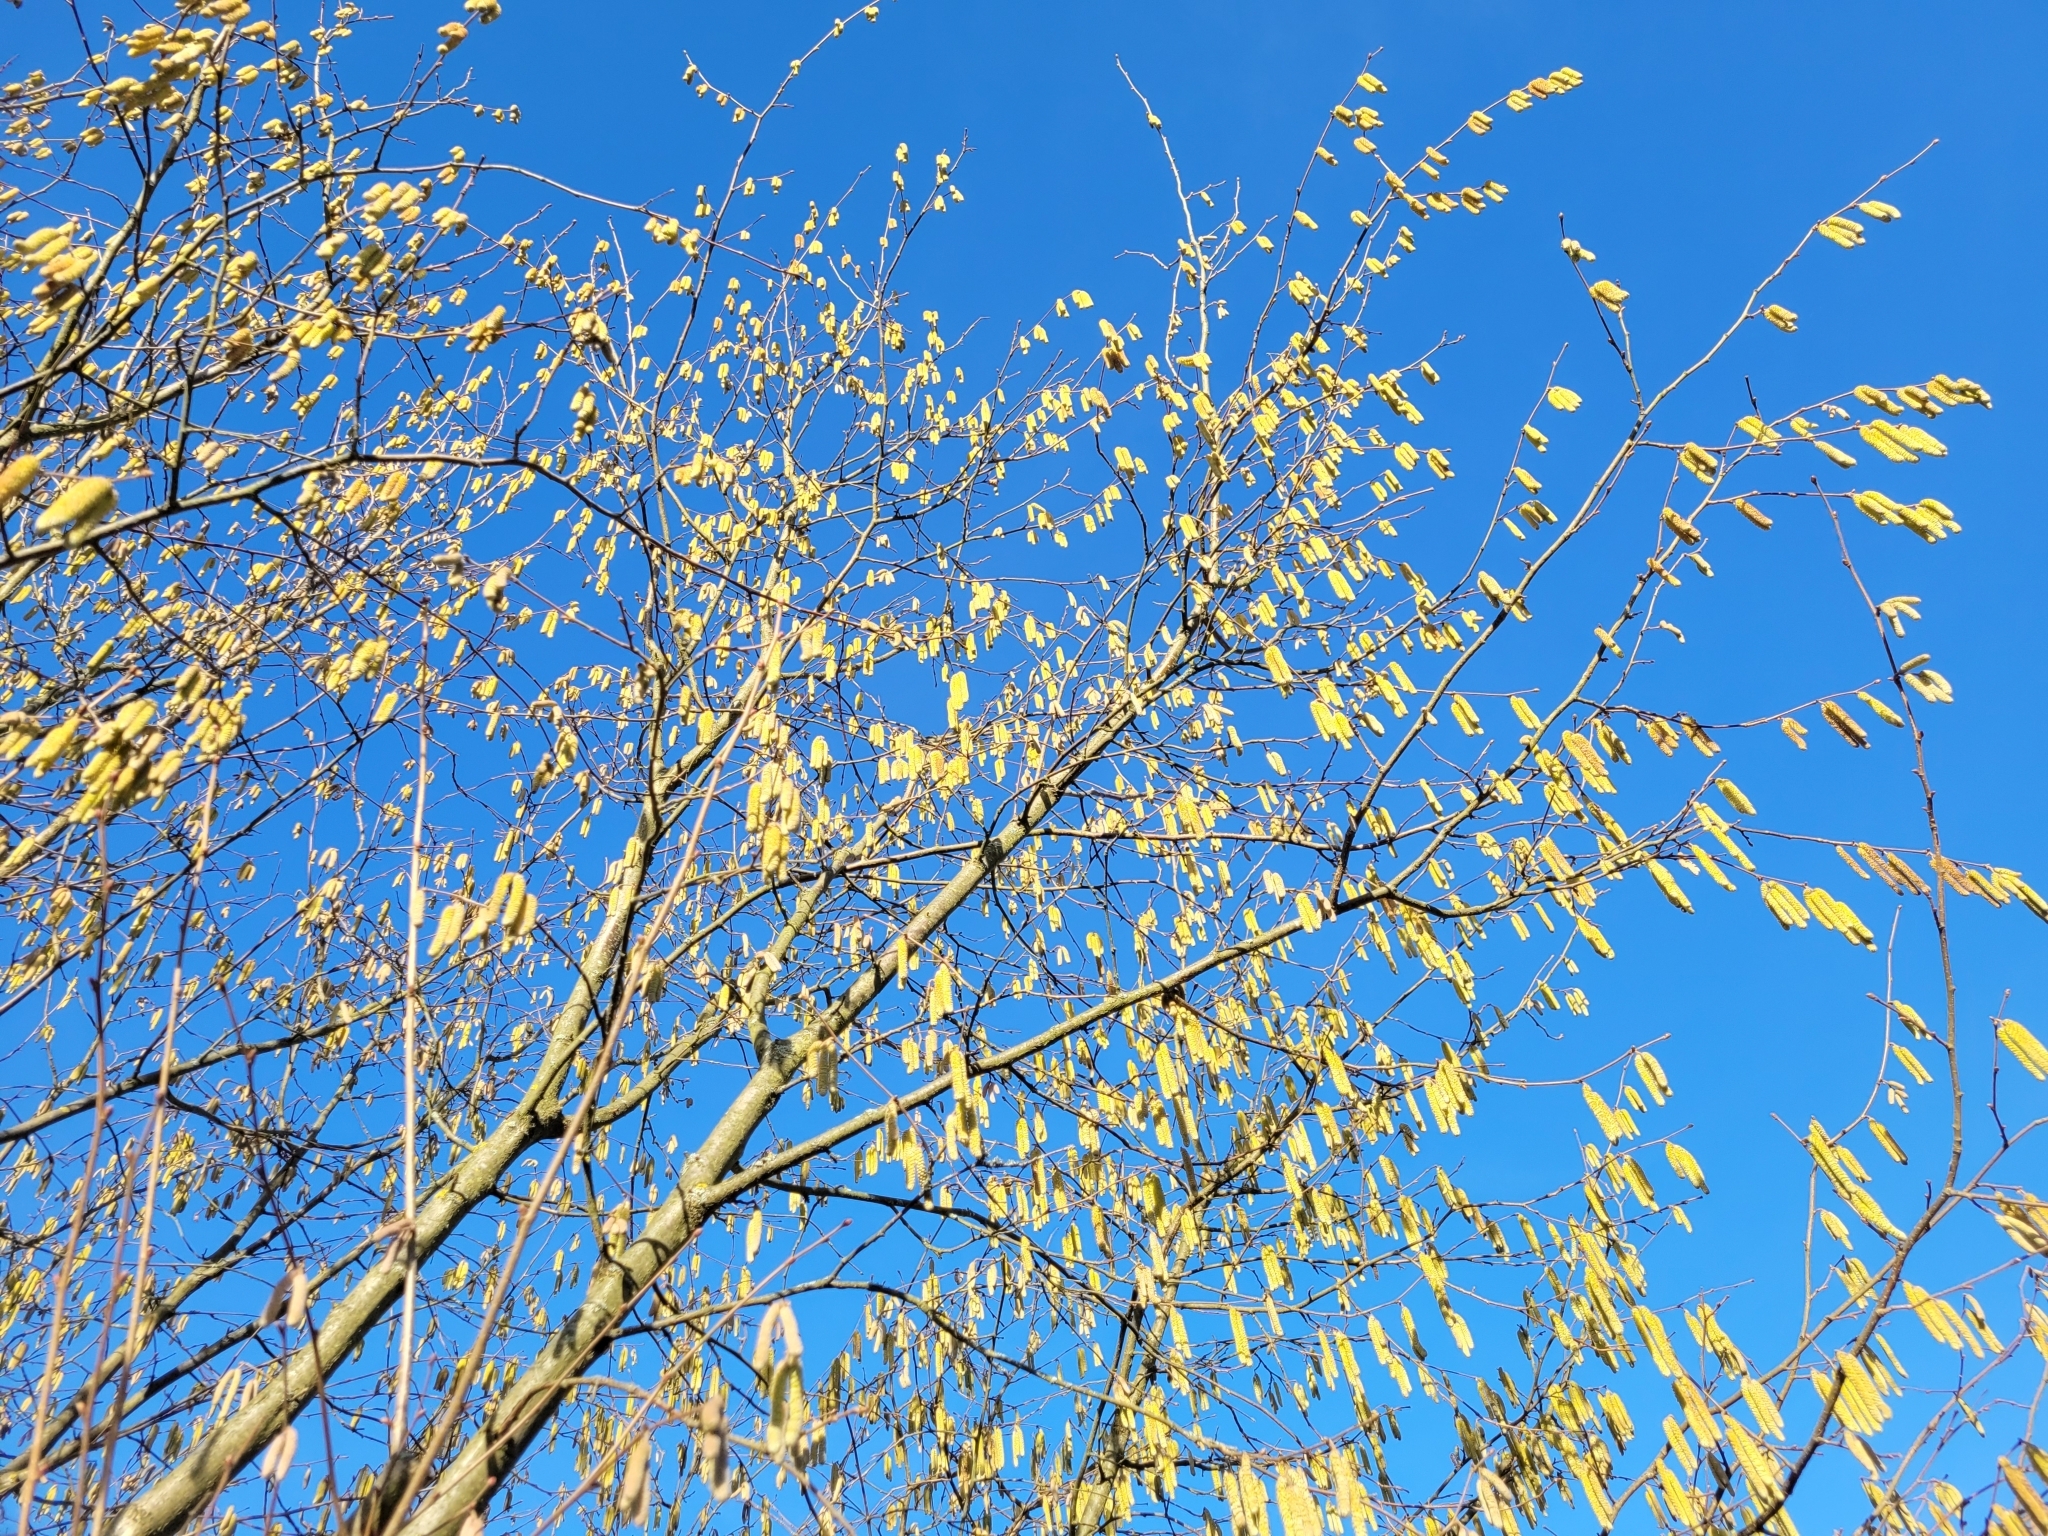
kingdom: Plantae
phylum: Tracheophyta
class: Magnoliopsida
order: Fagales
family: Betulaceae
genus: Corylus
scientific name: Corylus avellana
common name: European hazel
